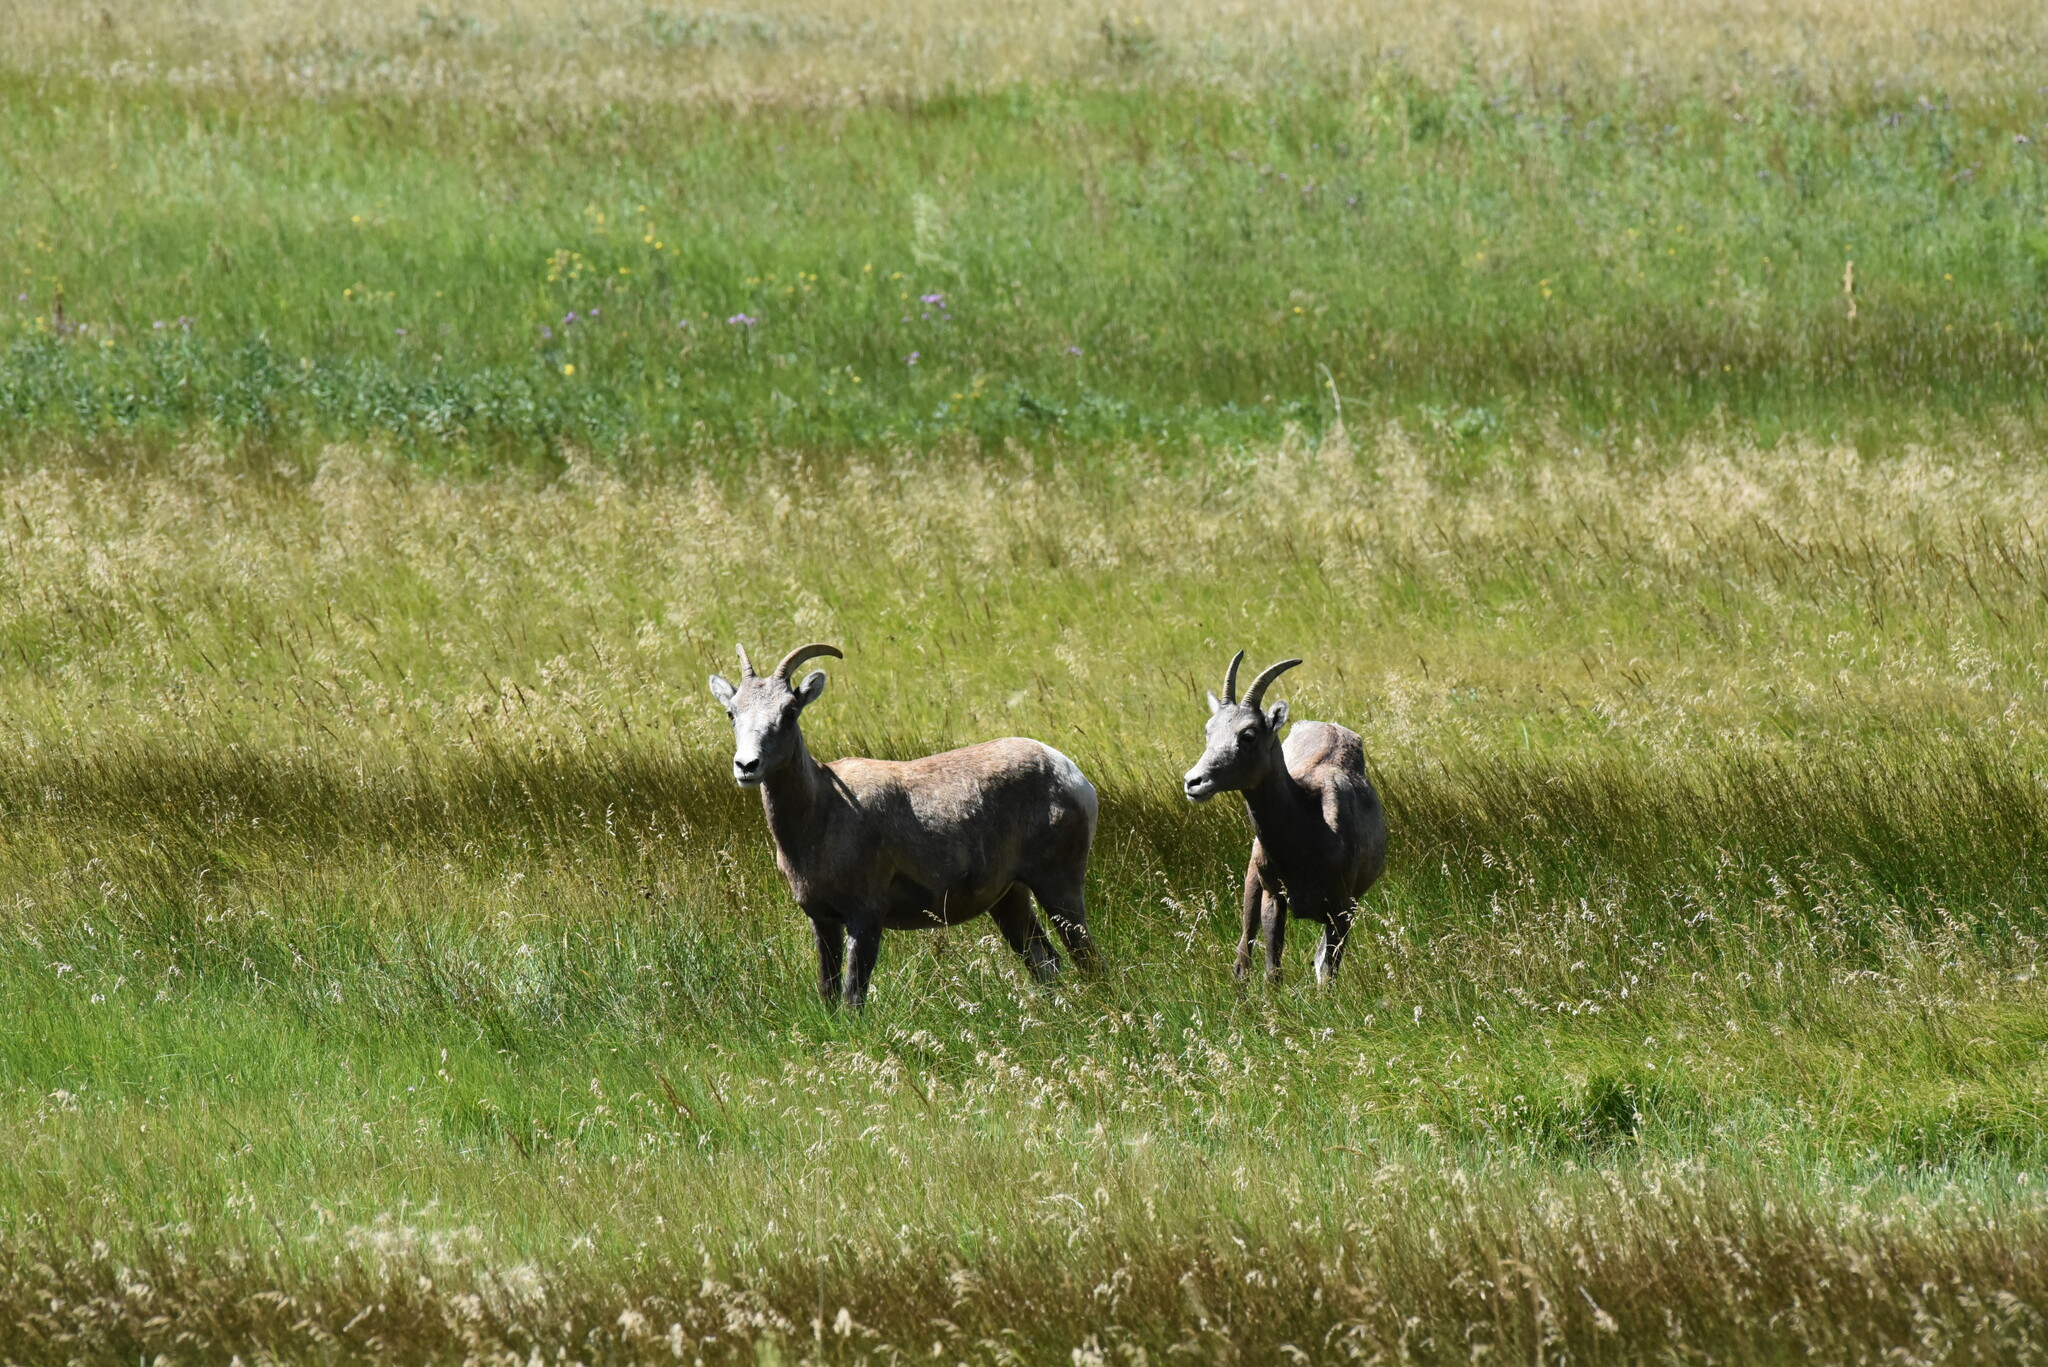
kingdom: Animalia
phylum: Chordata
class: Mammalia
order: Artiodactyla
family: Bovidae
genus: Ovis
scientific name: Ovis canadensis
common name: Bighorn sheep
